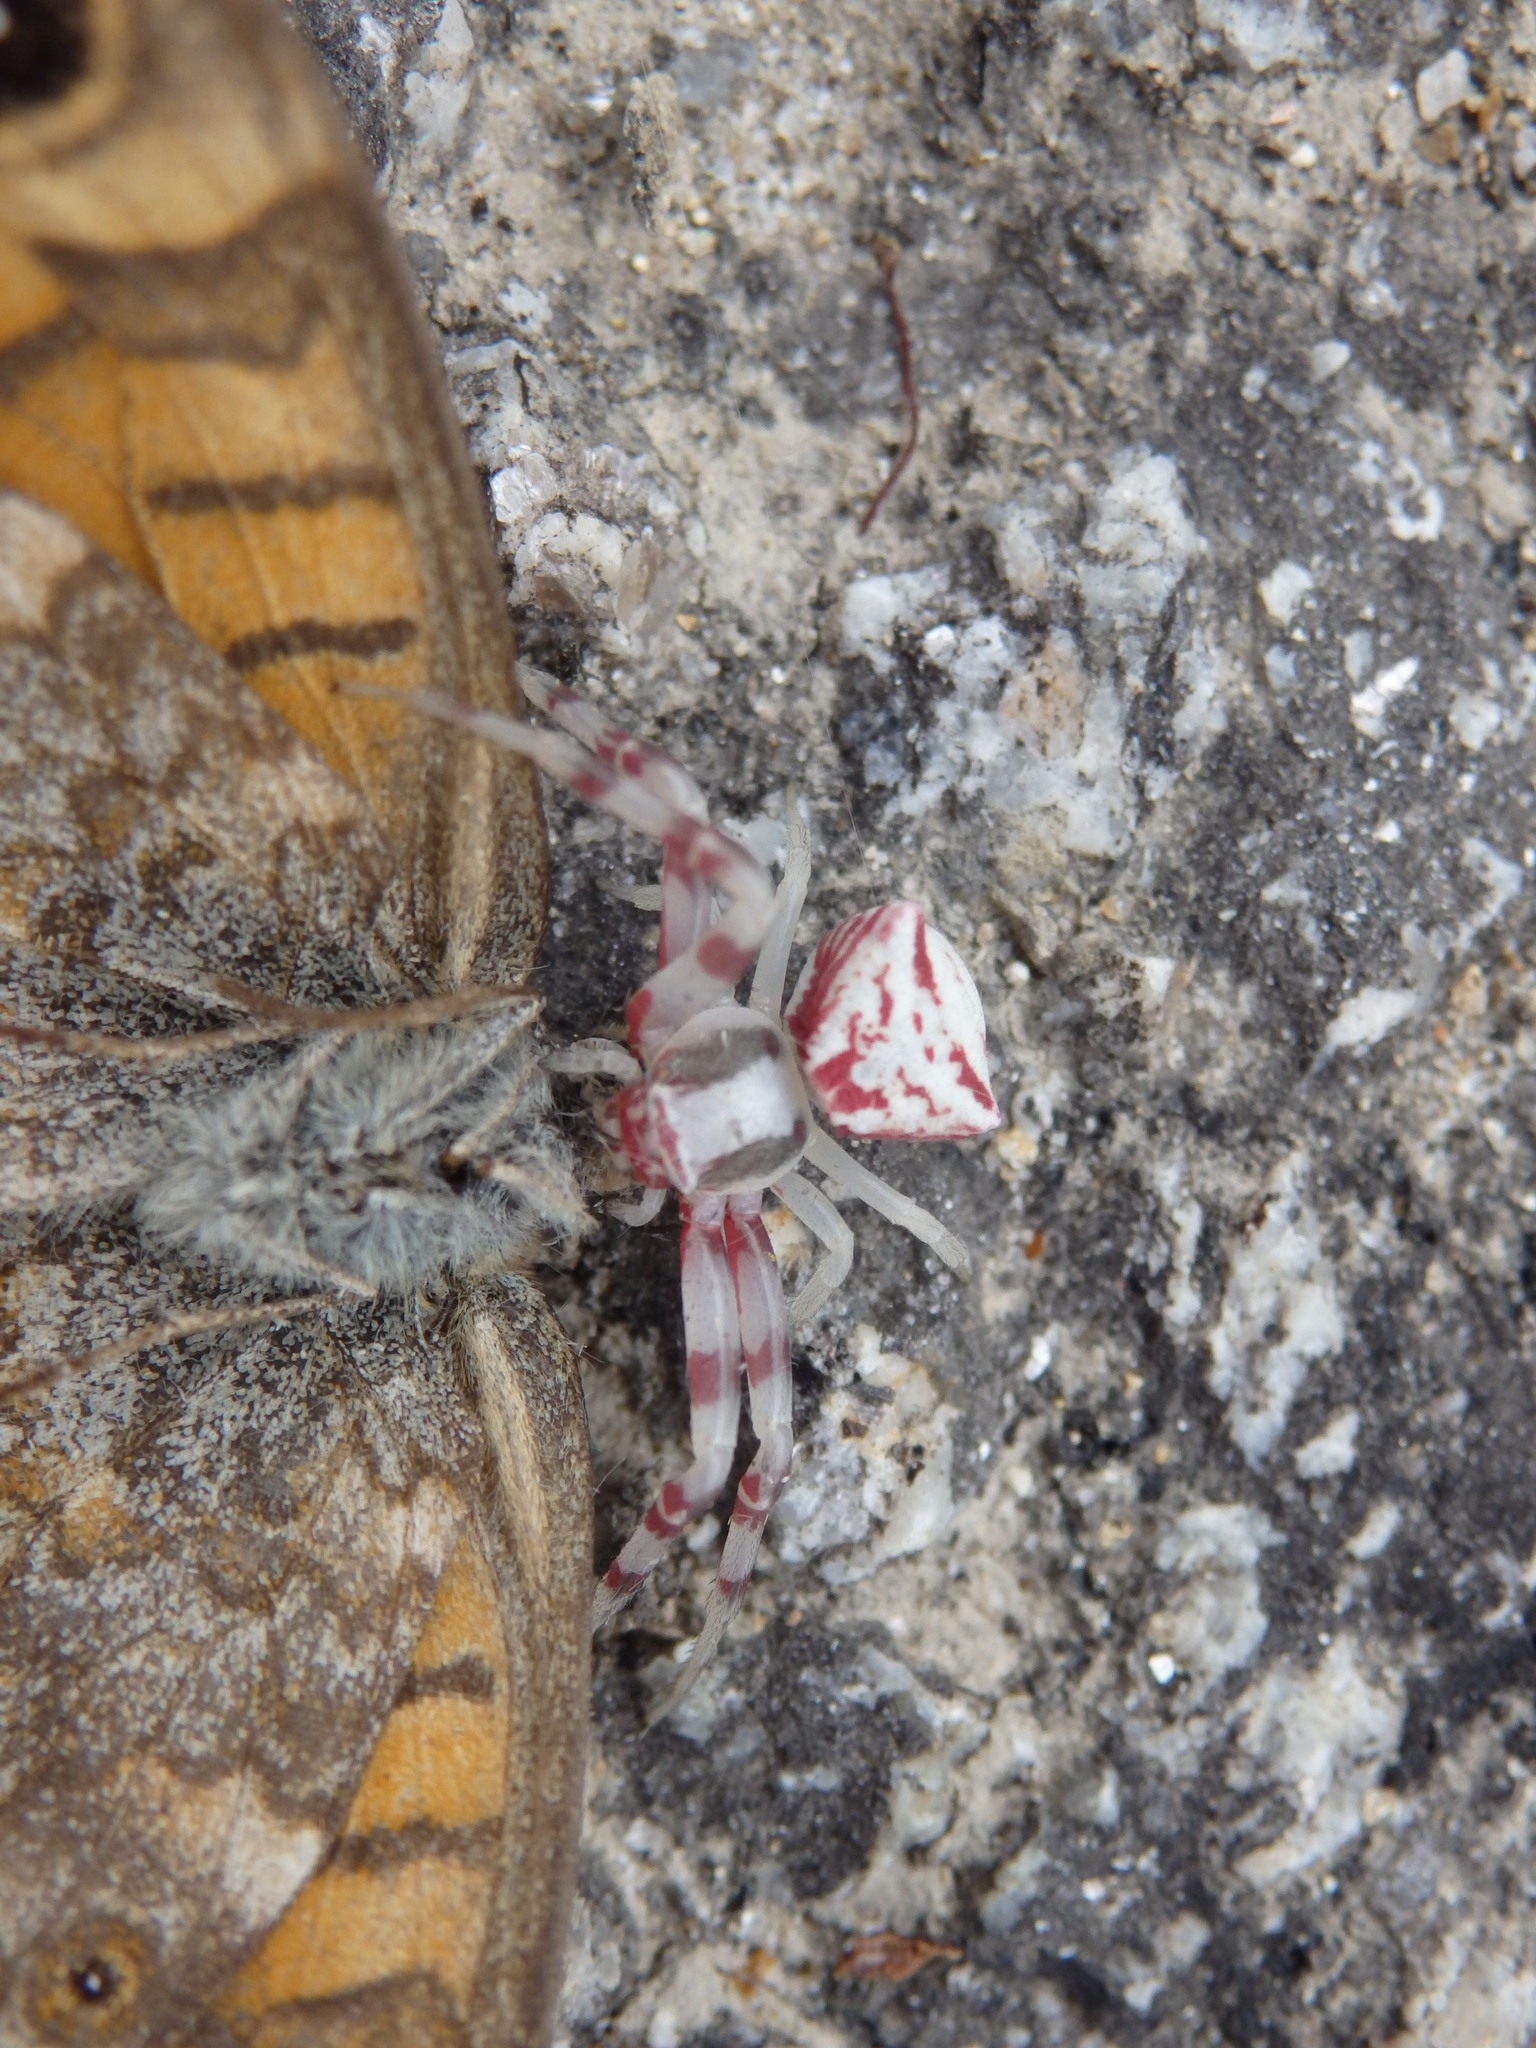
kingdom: Animalia
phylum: Arthropoda
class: Arachnida
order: Araneae
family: Thomisidae
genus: Thomisus
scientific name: Thomisus onustus
